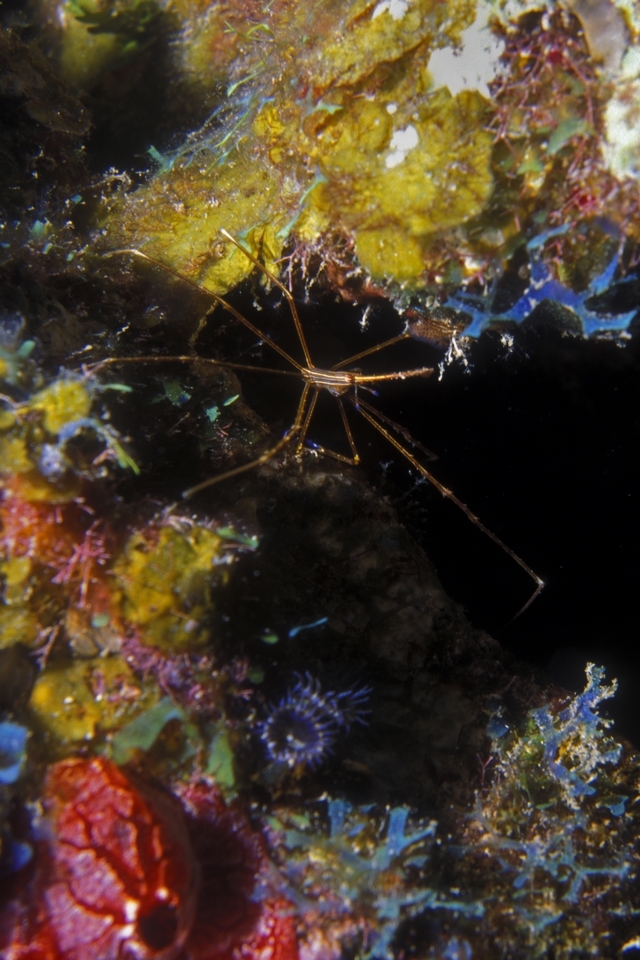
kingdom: Animalia
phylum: Arthropoda
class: Malacostraca
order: Decapoda
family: Inachoididae
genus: Stenorhynchus
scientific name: Stenorhynchus seticornis
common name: Arrow crab
